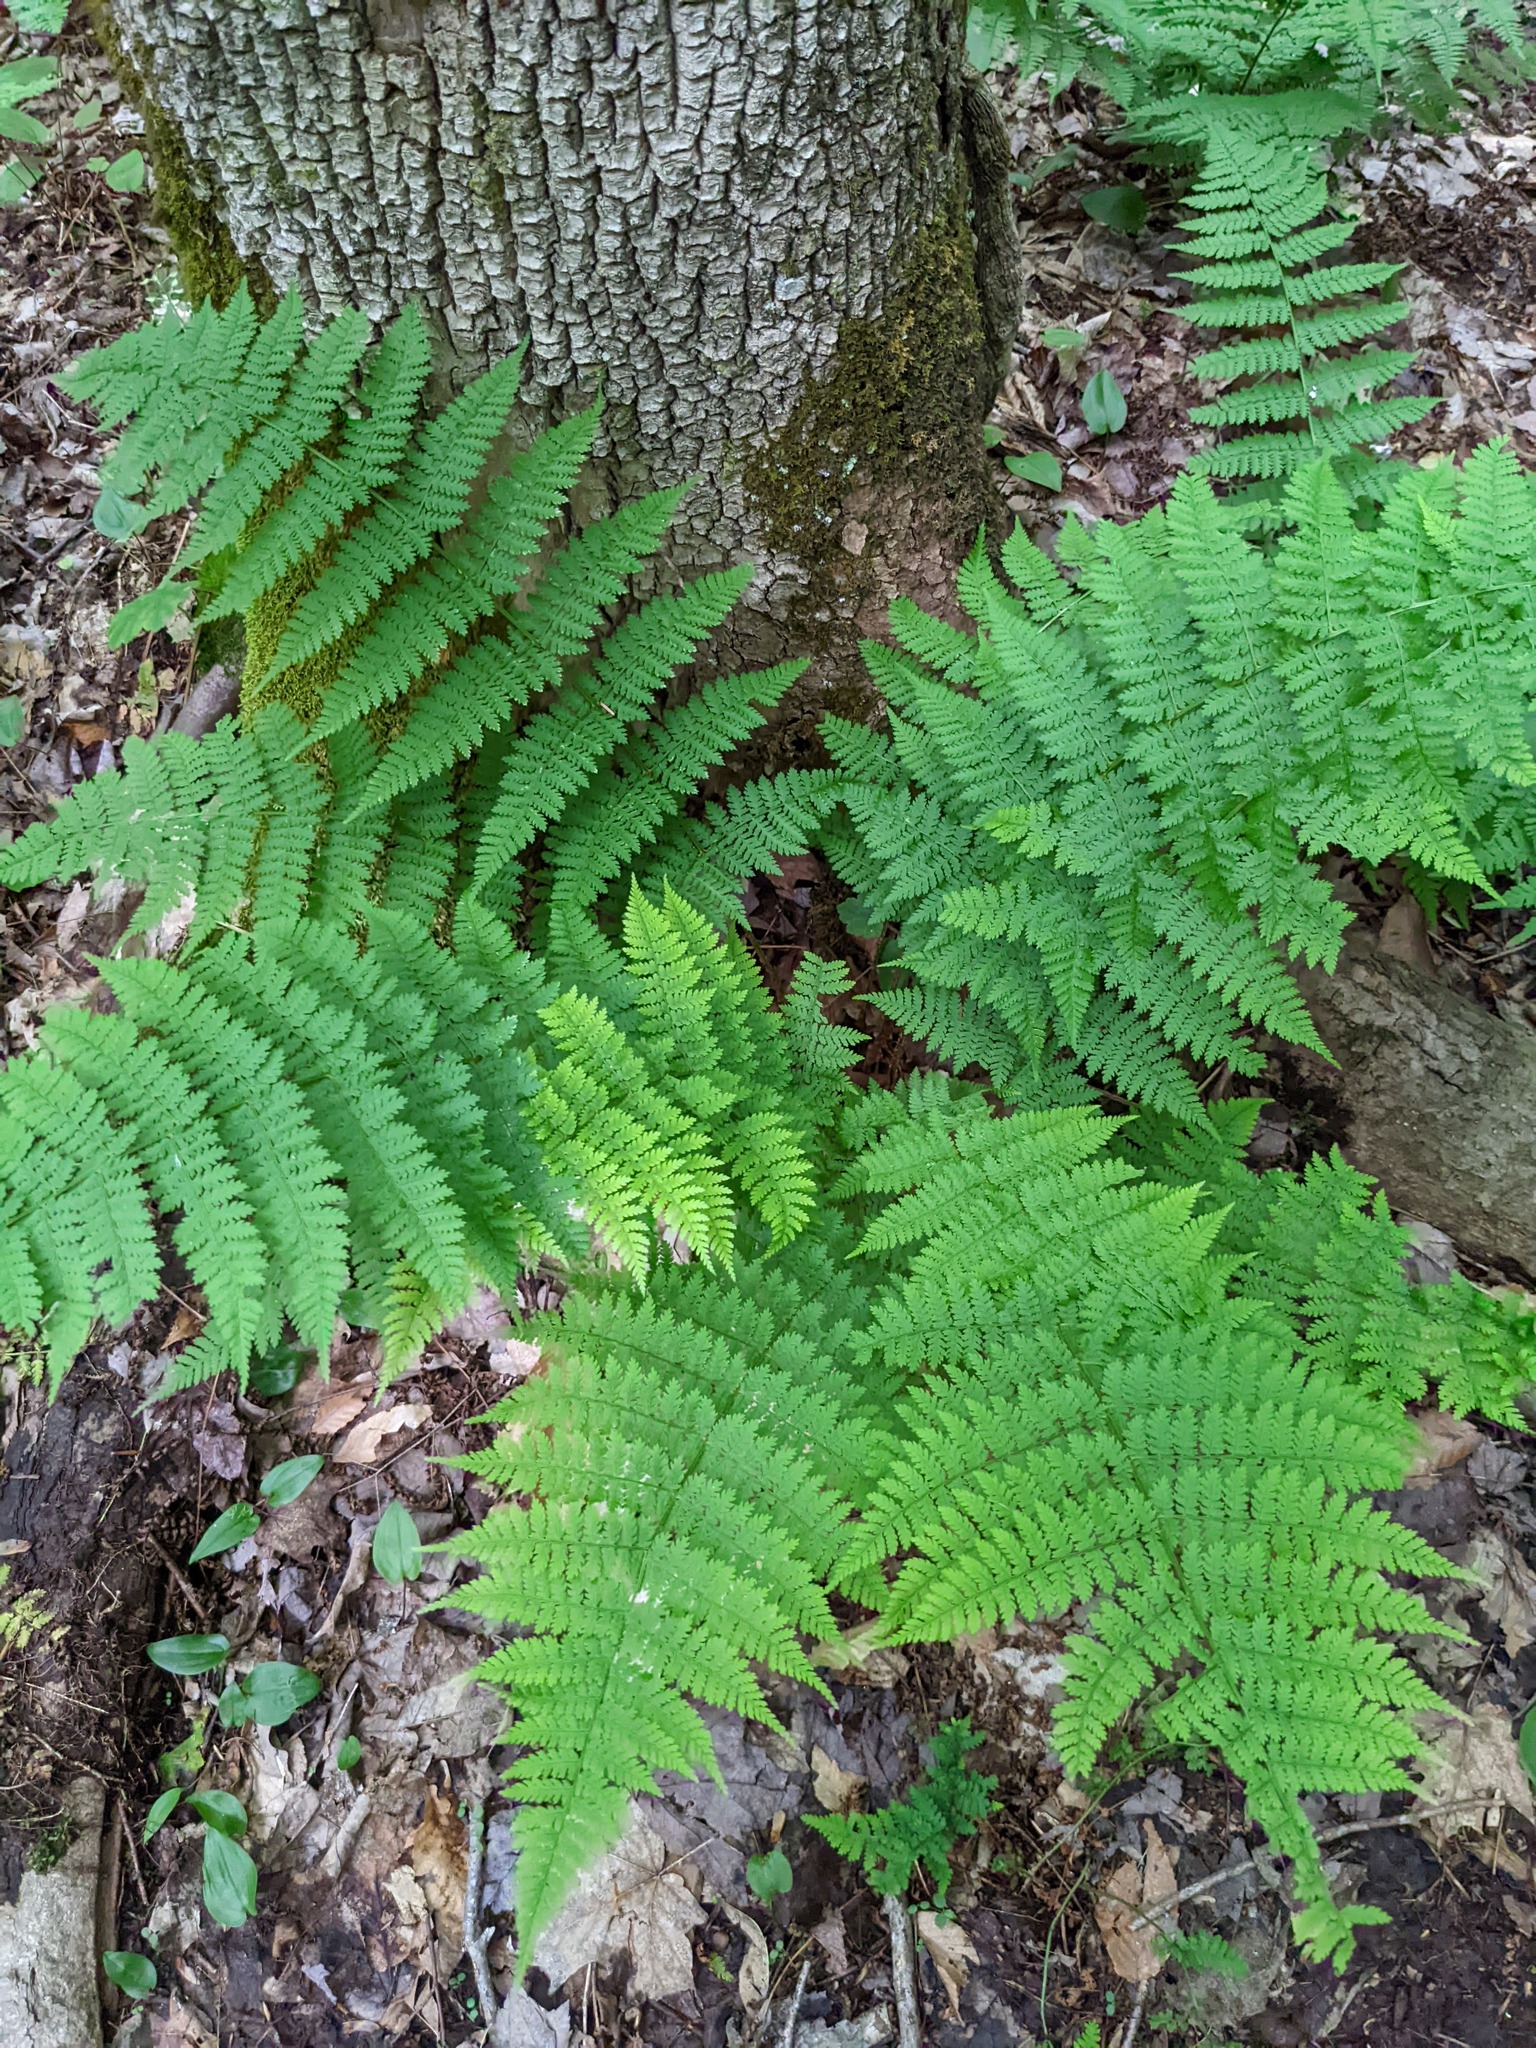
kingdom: Plantae
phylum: Tracheophyta
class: Polypodiopsida
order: Polypodiales
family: Dryopteridaceae
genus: Dryopteris
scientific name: Dryopteris intermedia
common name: Evergreen wood fern
